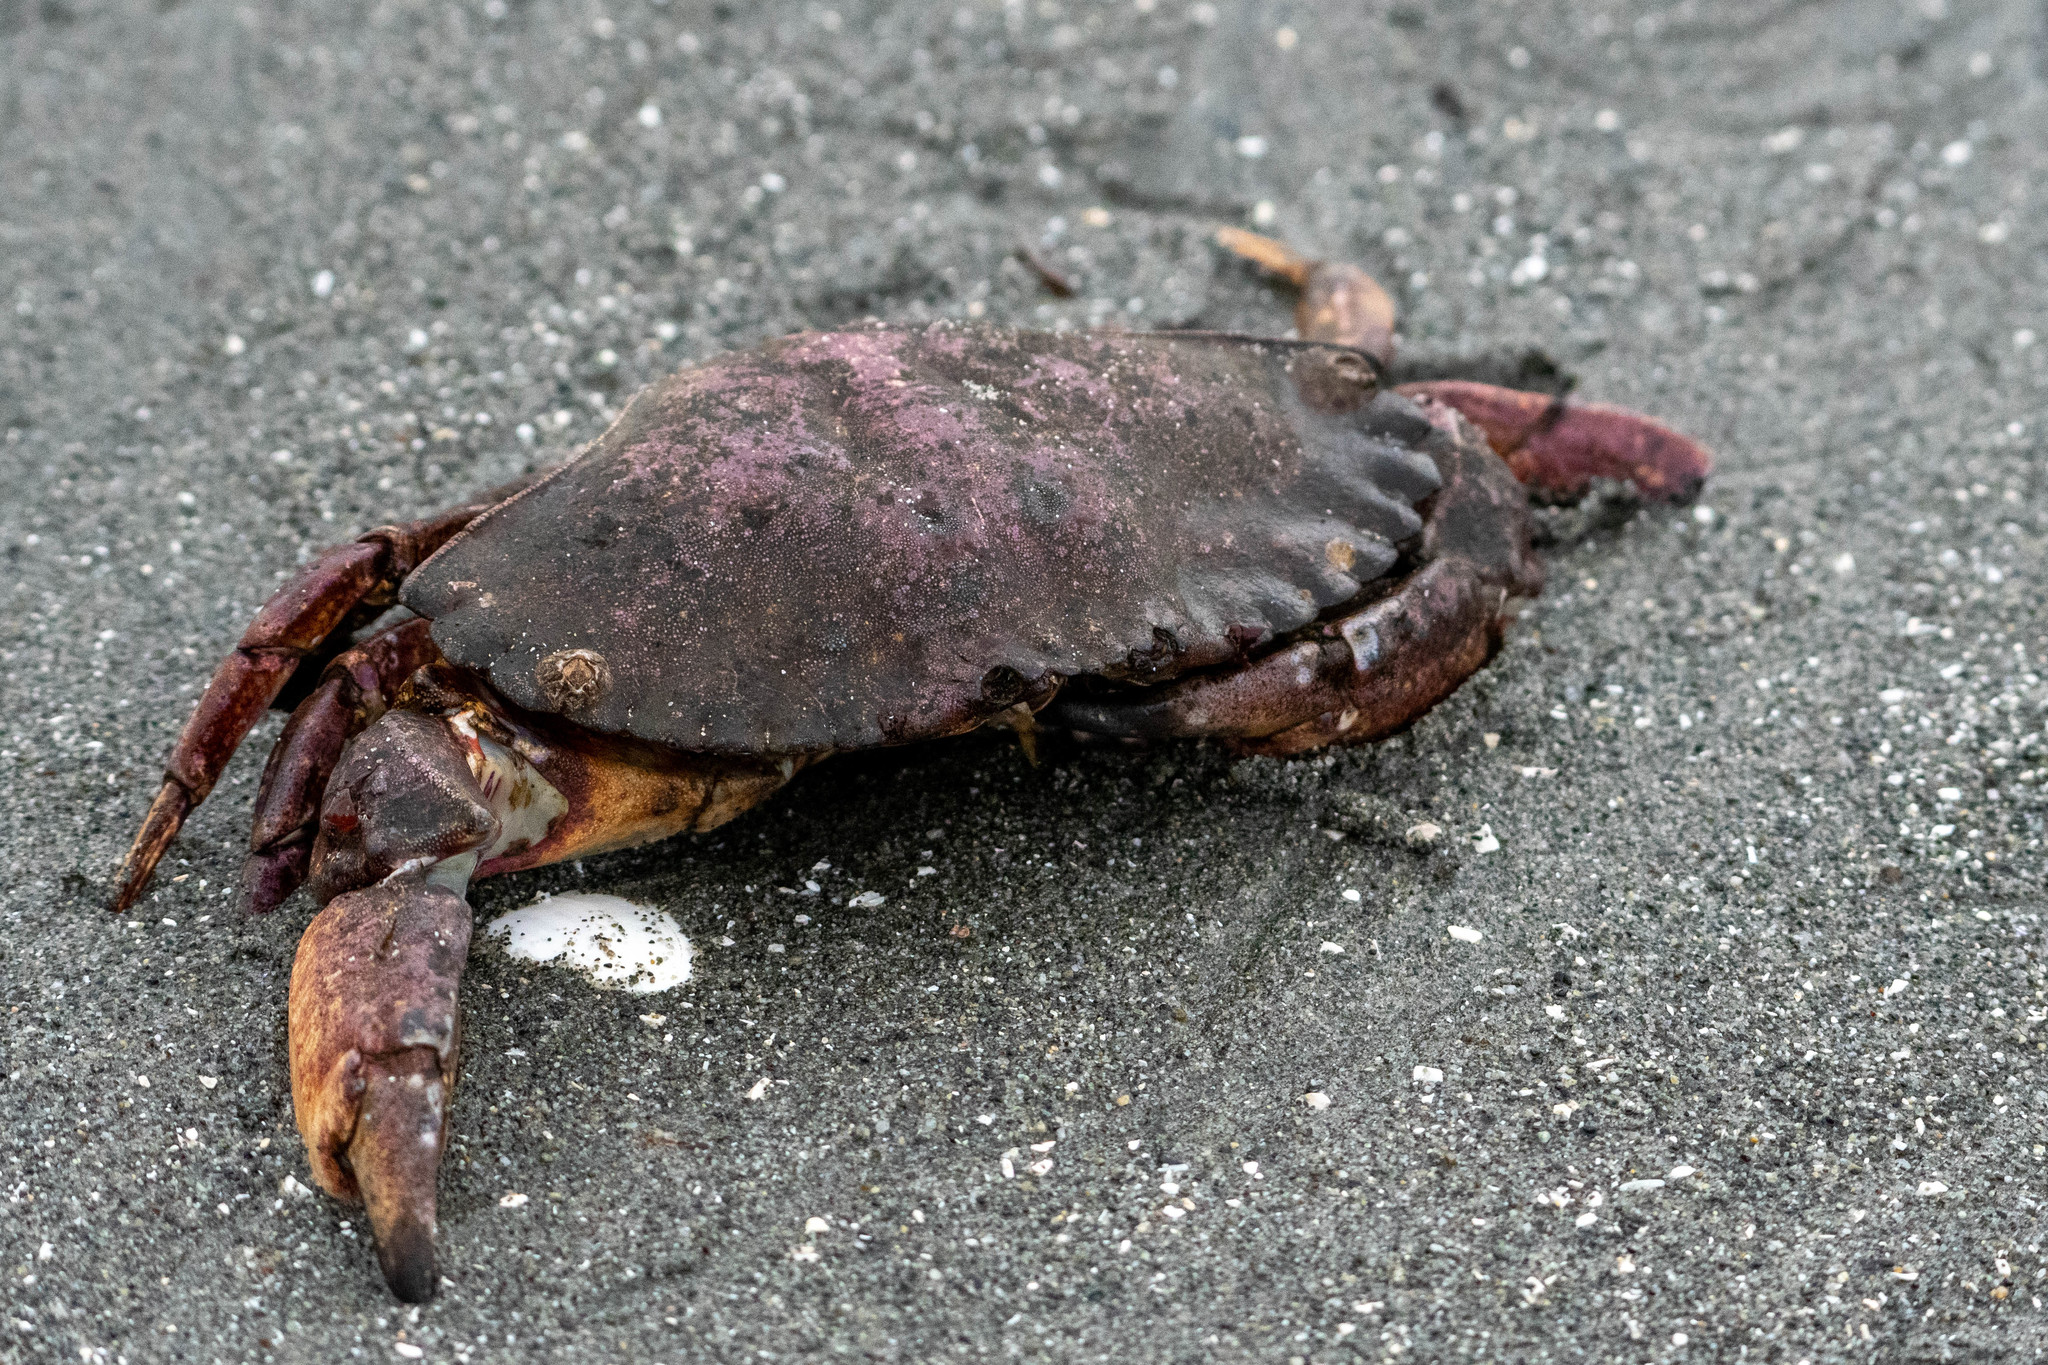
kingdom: Animalia
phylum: Arthropoda
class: Malacostraca
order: Decapoda
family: Cancridae
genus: Cancer
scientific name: Cancer productus
